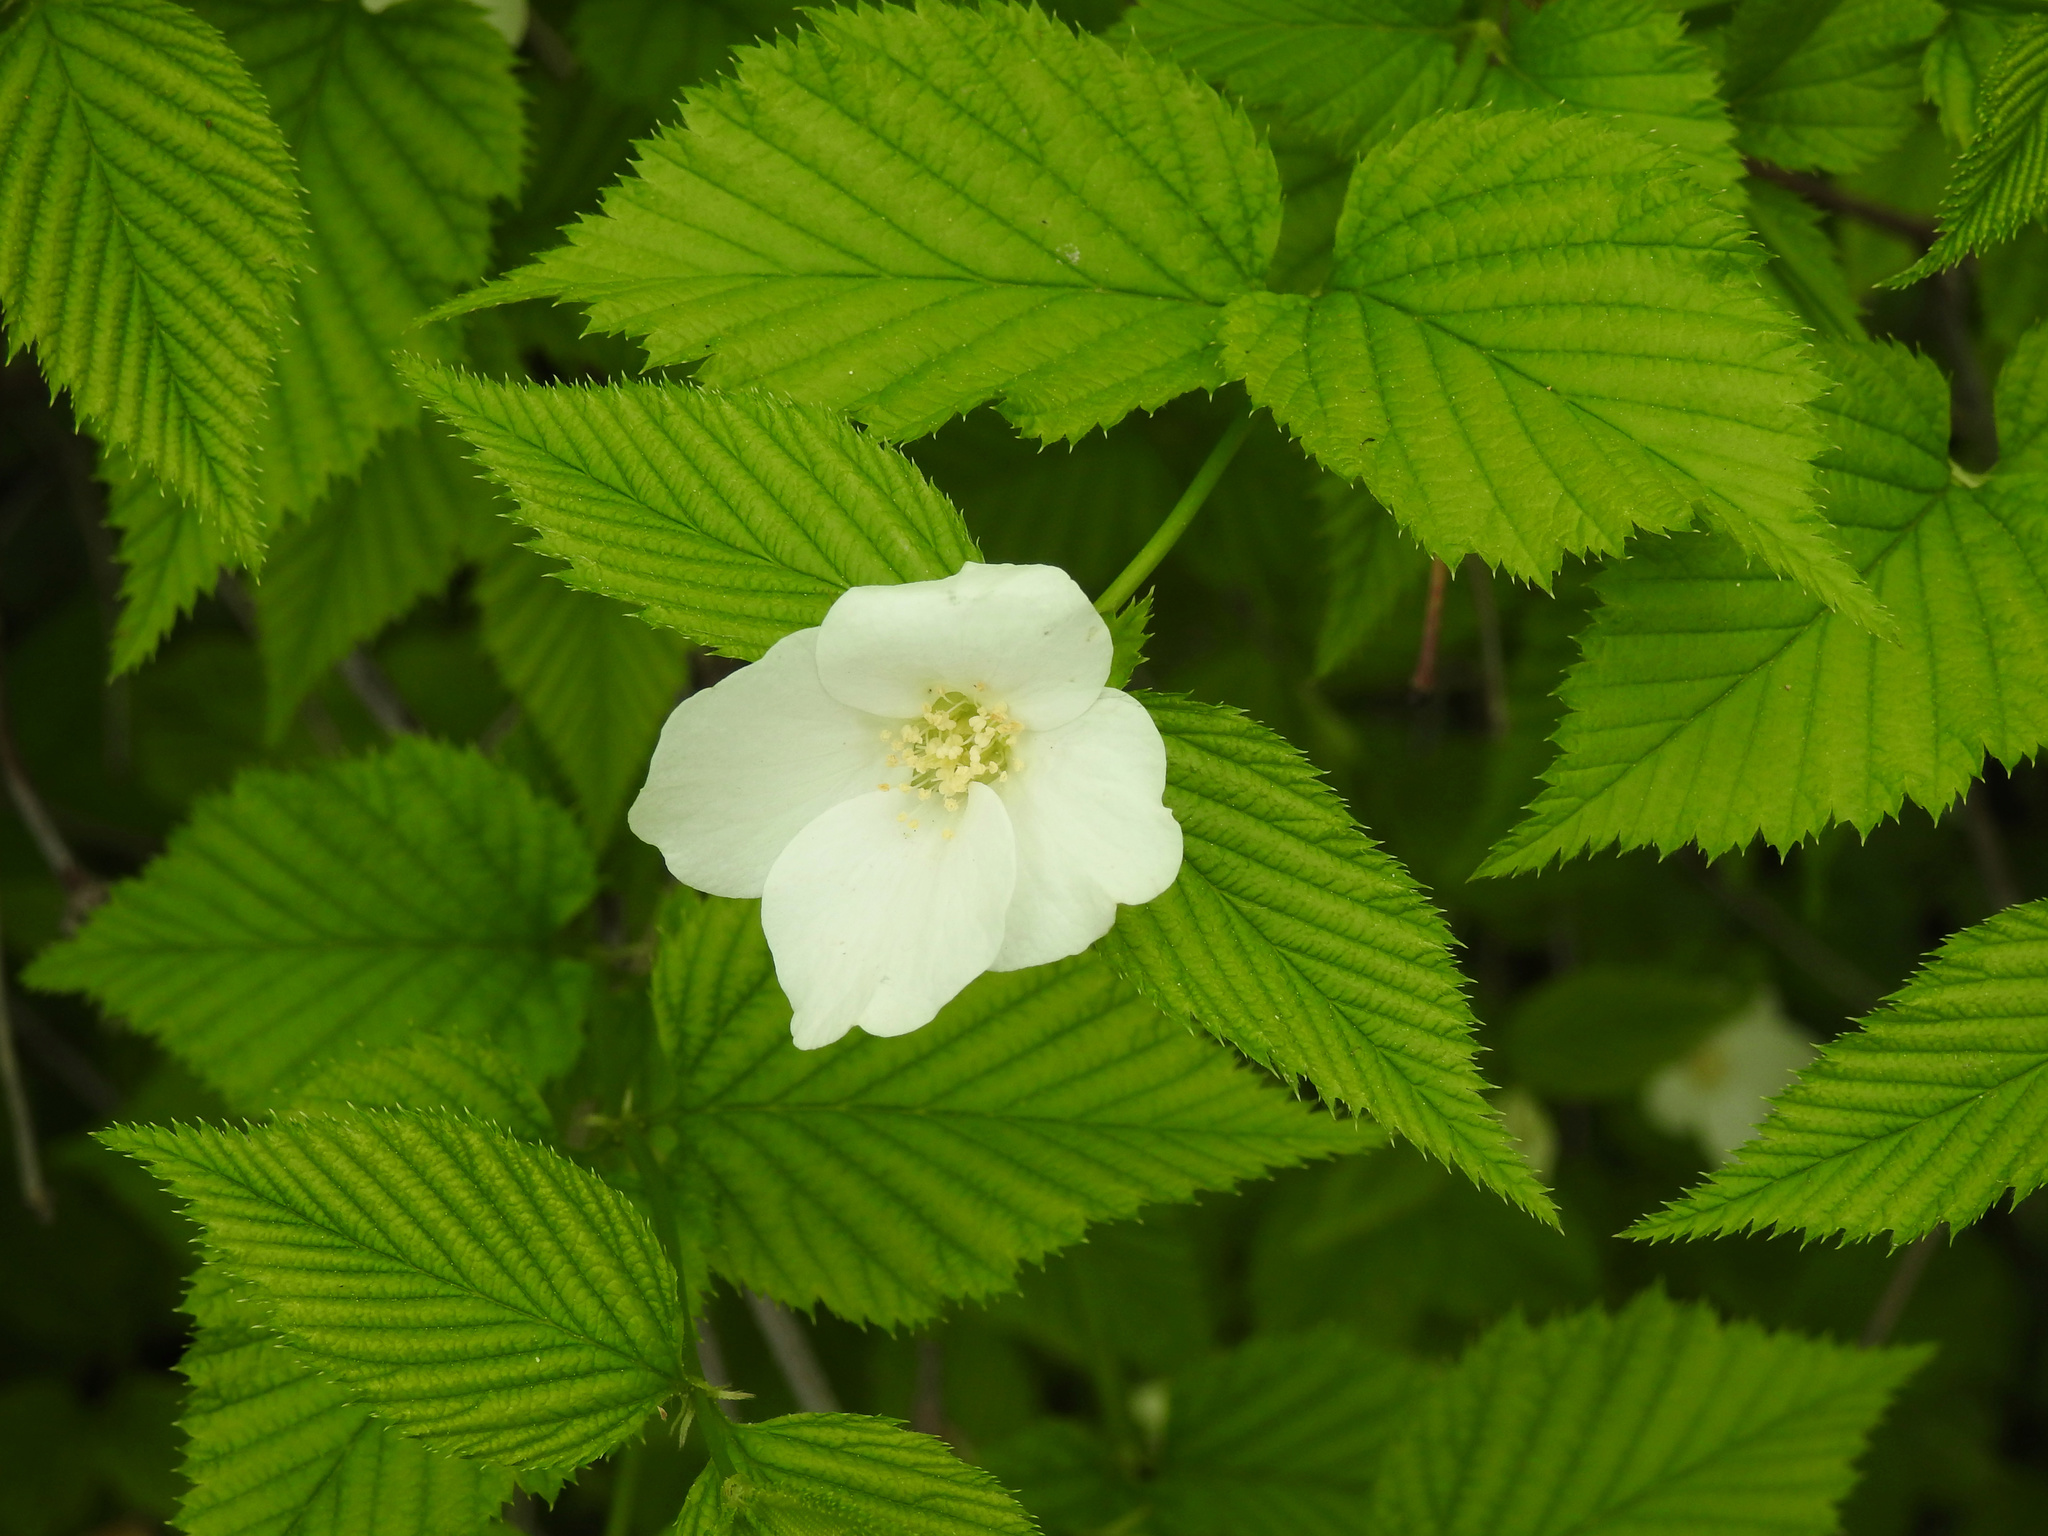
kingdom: Plantae
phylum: Tracheophyta
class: Magnoliopsida
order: Rosales
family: Rosaceae
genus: Rhodotypos
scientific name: Rhodotypos scandens
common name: Jetbead
